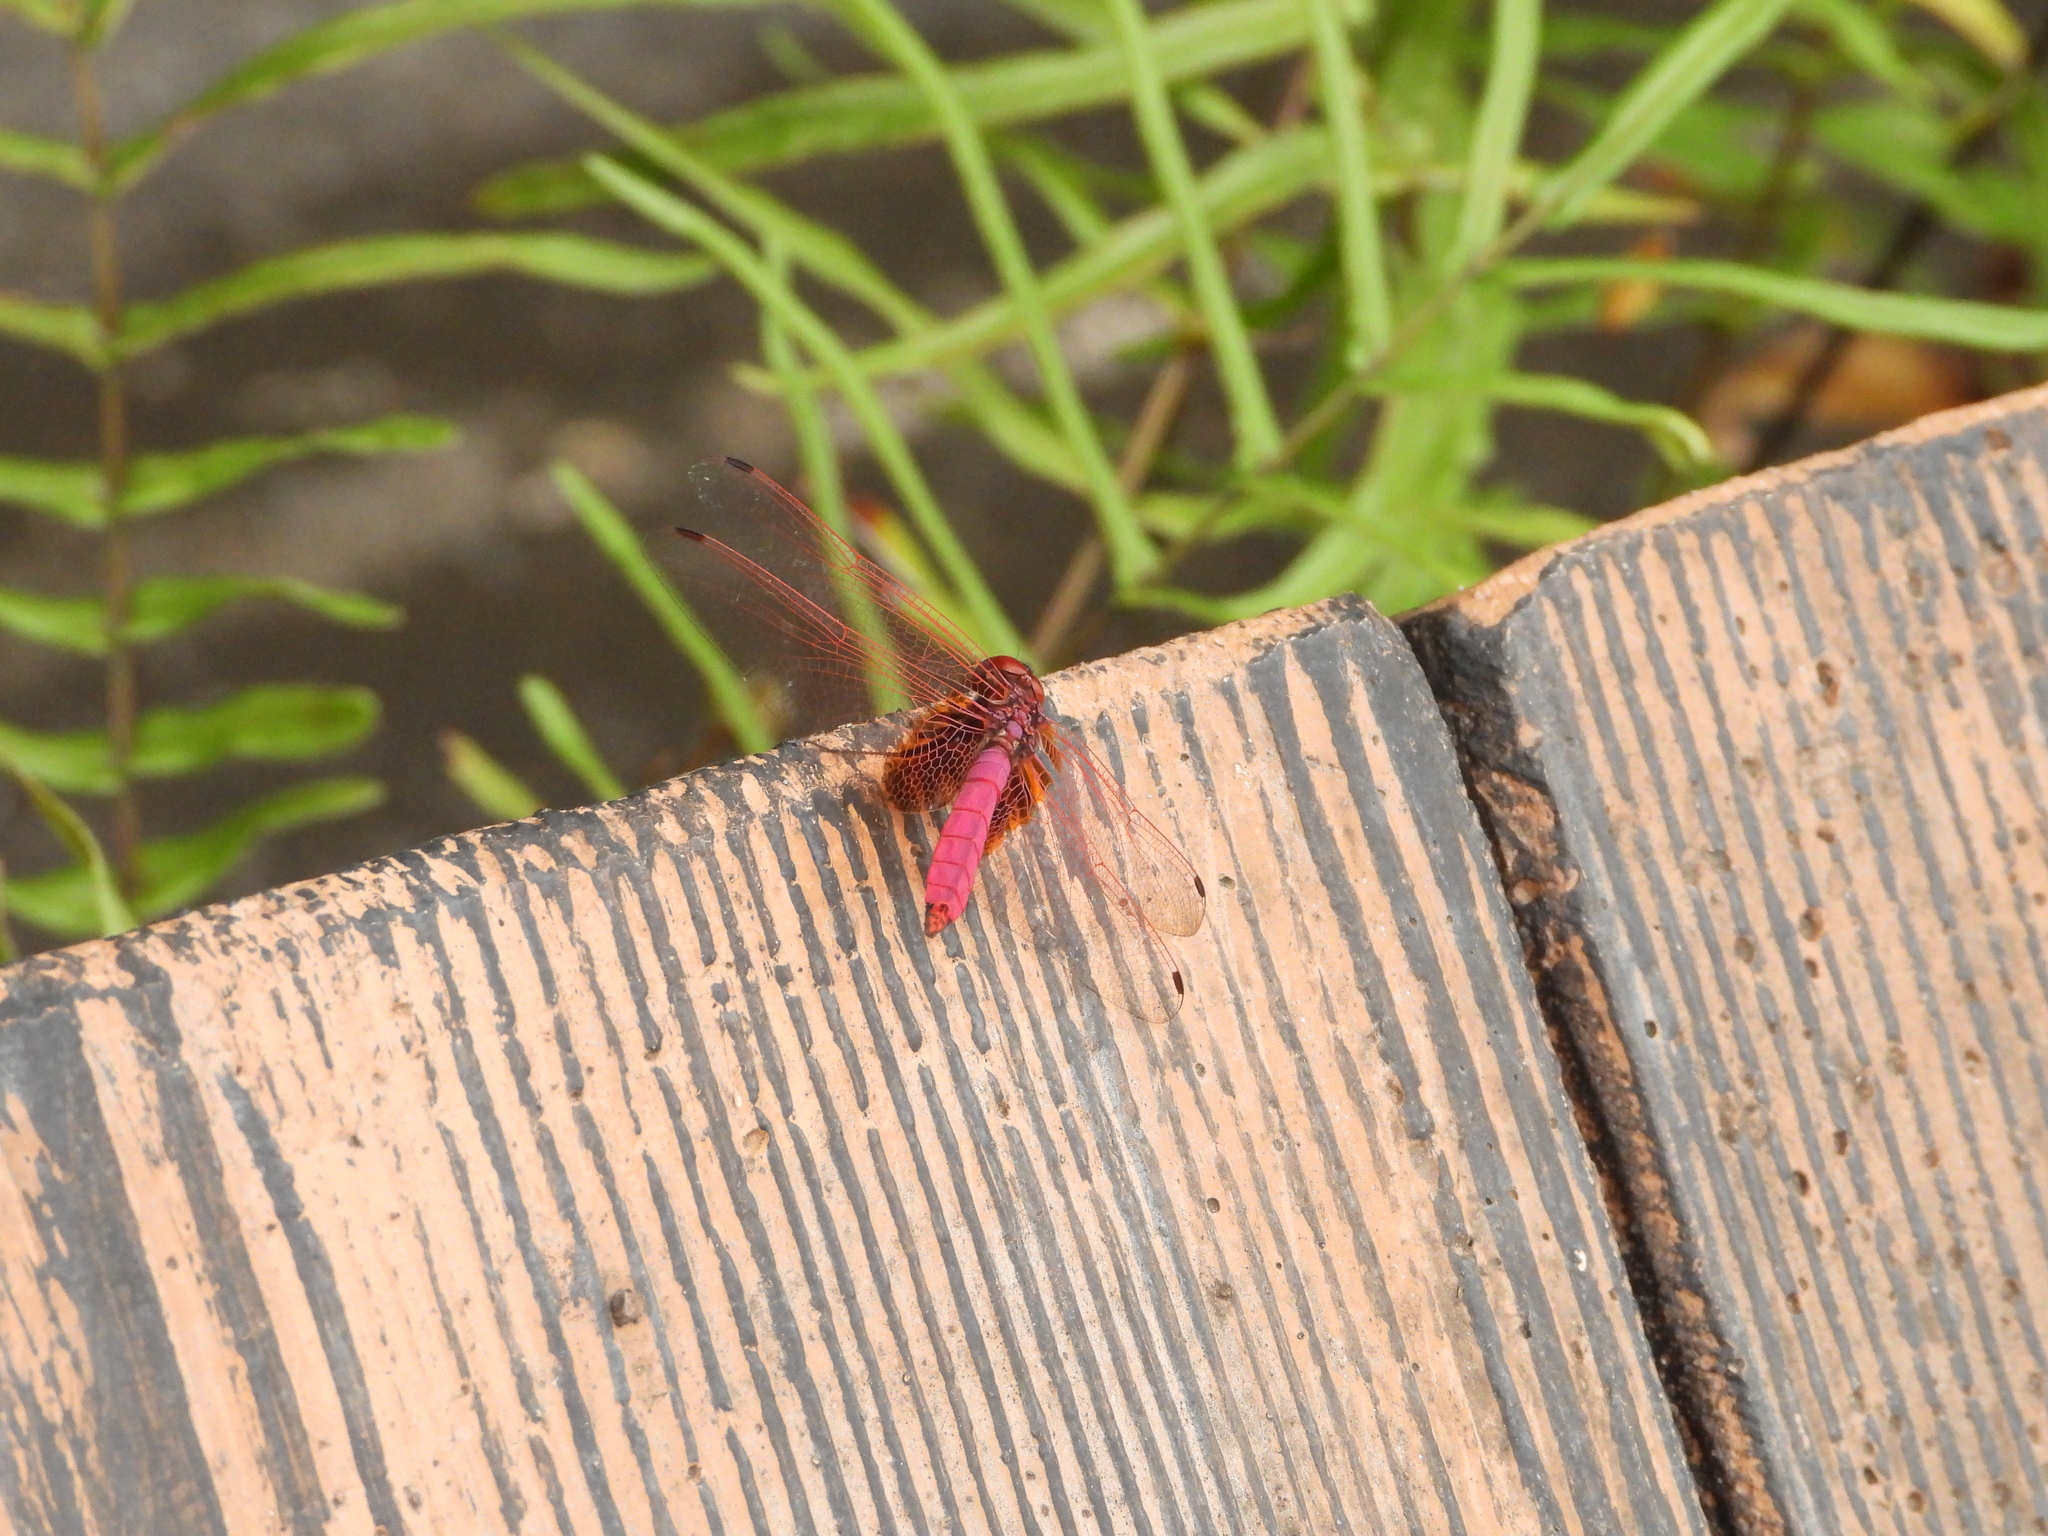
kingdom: Animalia
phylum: Arthropoda
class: Insecta
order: Odonata
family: Libellulidae
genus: Trithemis
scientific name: Trithemis aurora
